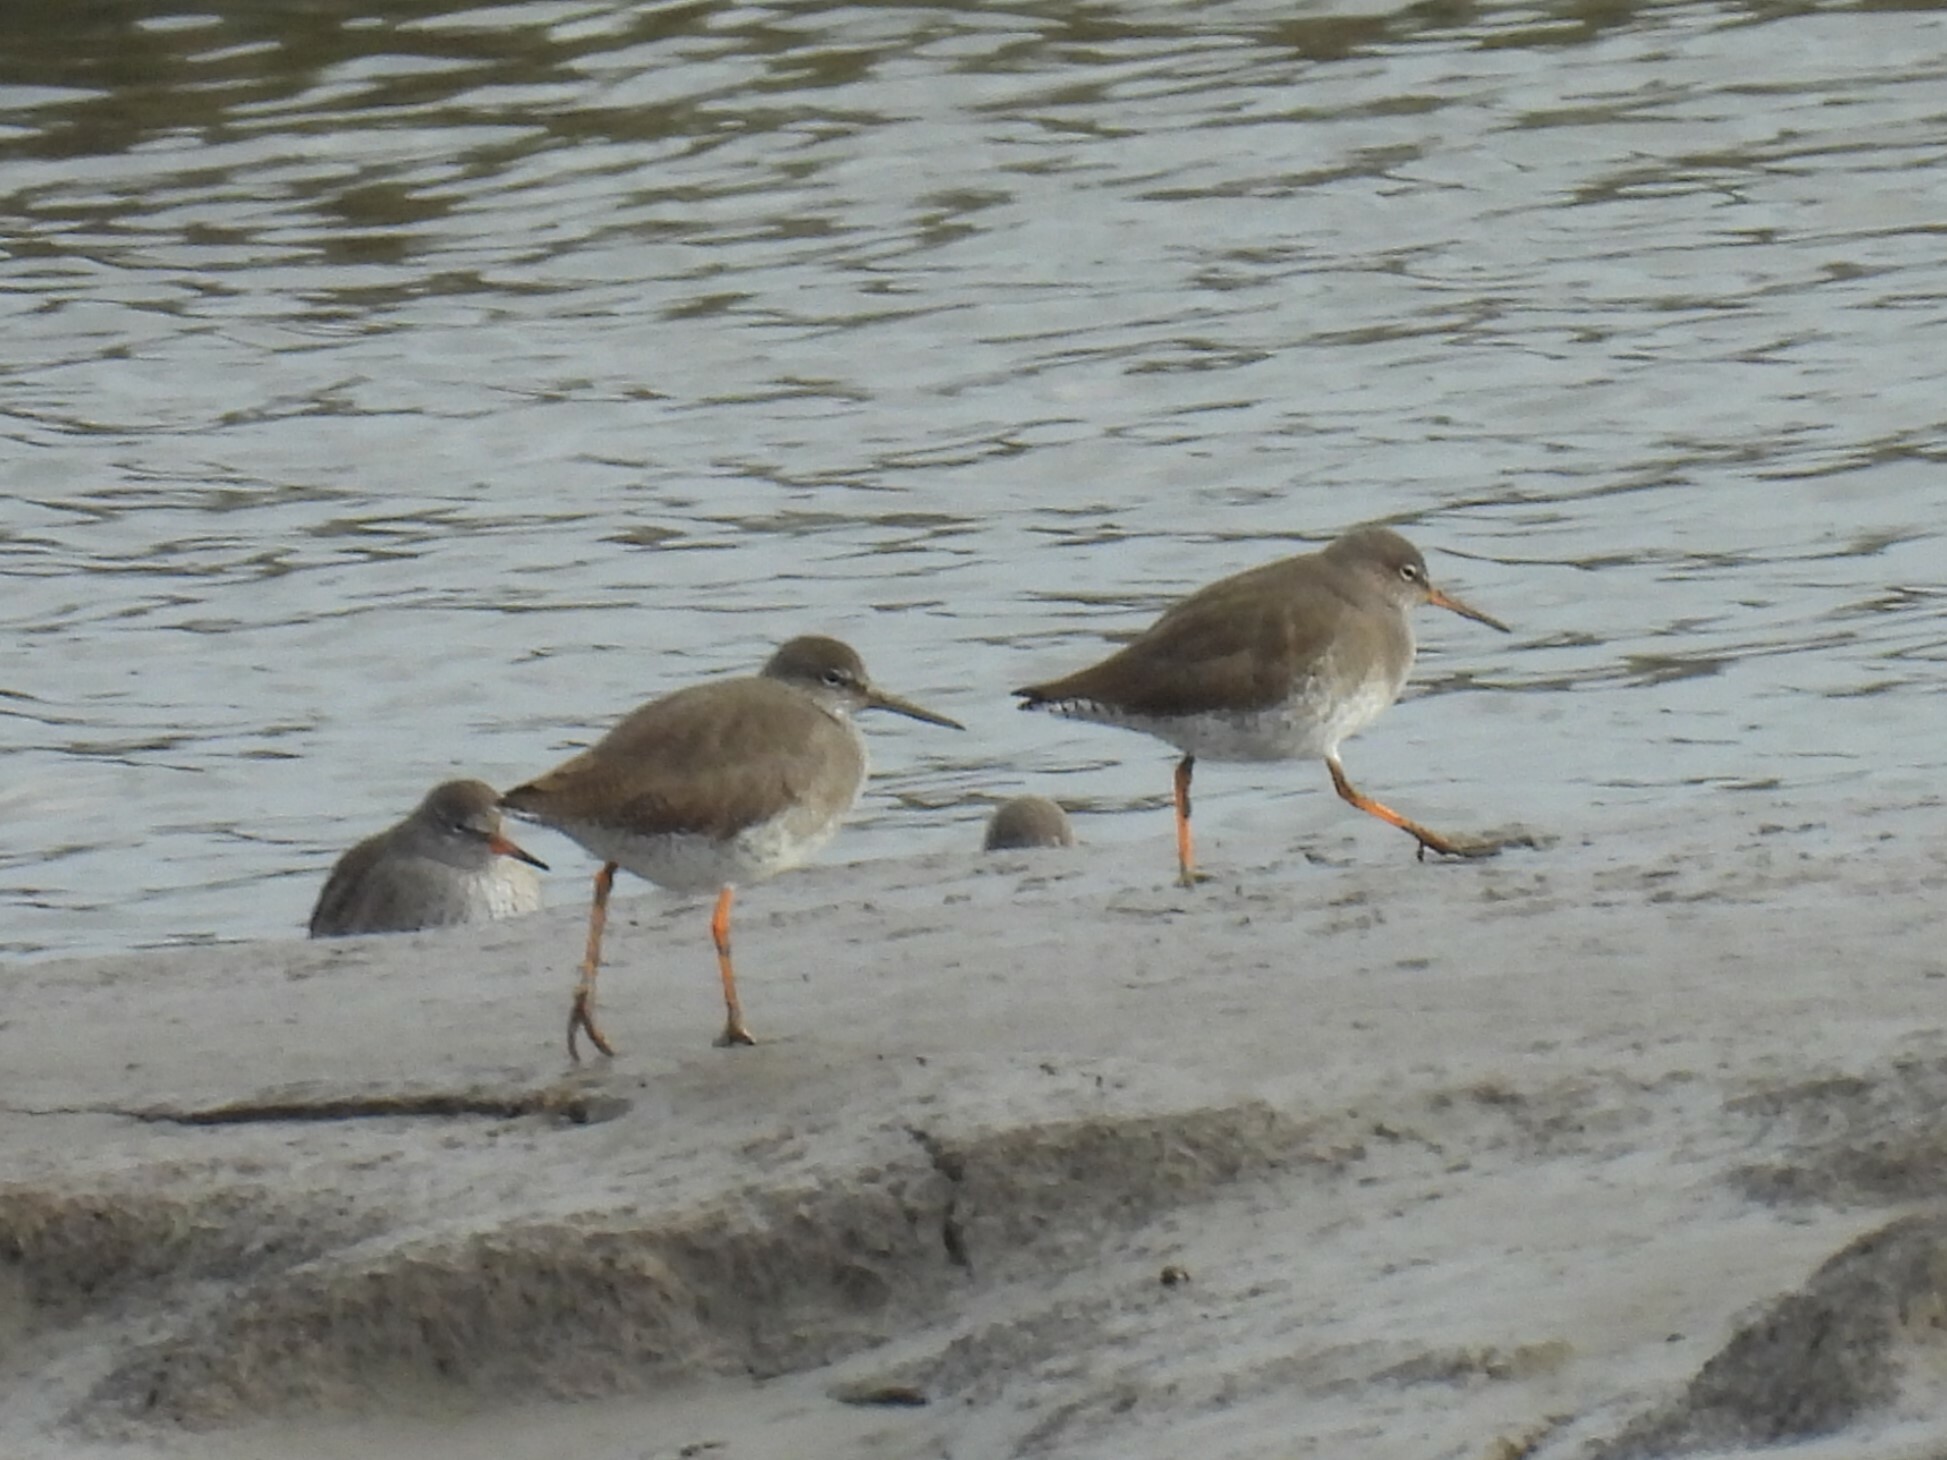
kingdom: Animalia
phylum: Chordata
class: Aves
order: Charadriiformes
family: Scolopacidae
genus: Tringa
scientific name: Tringa totanus
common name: Common redshank
